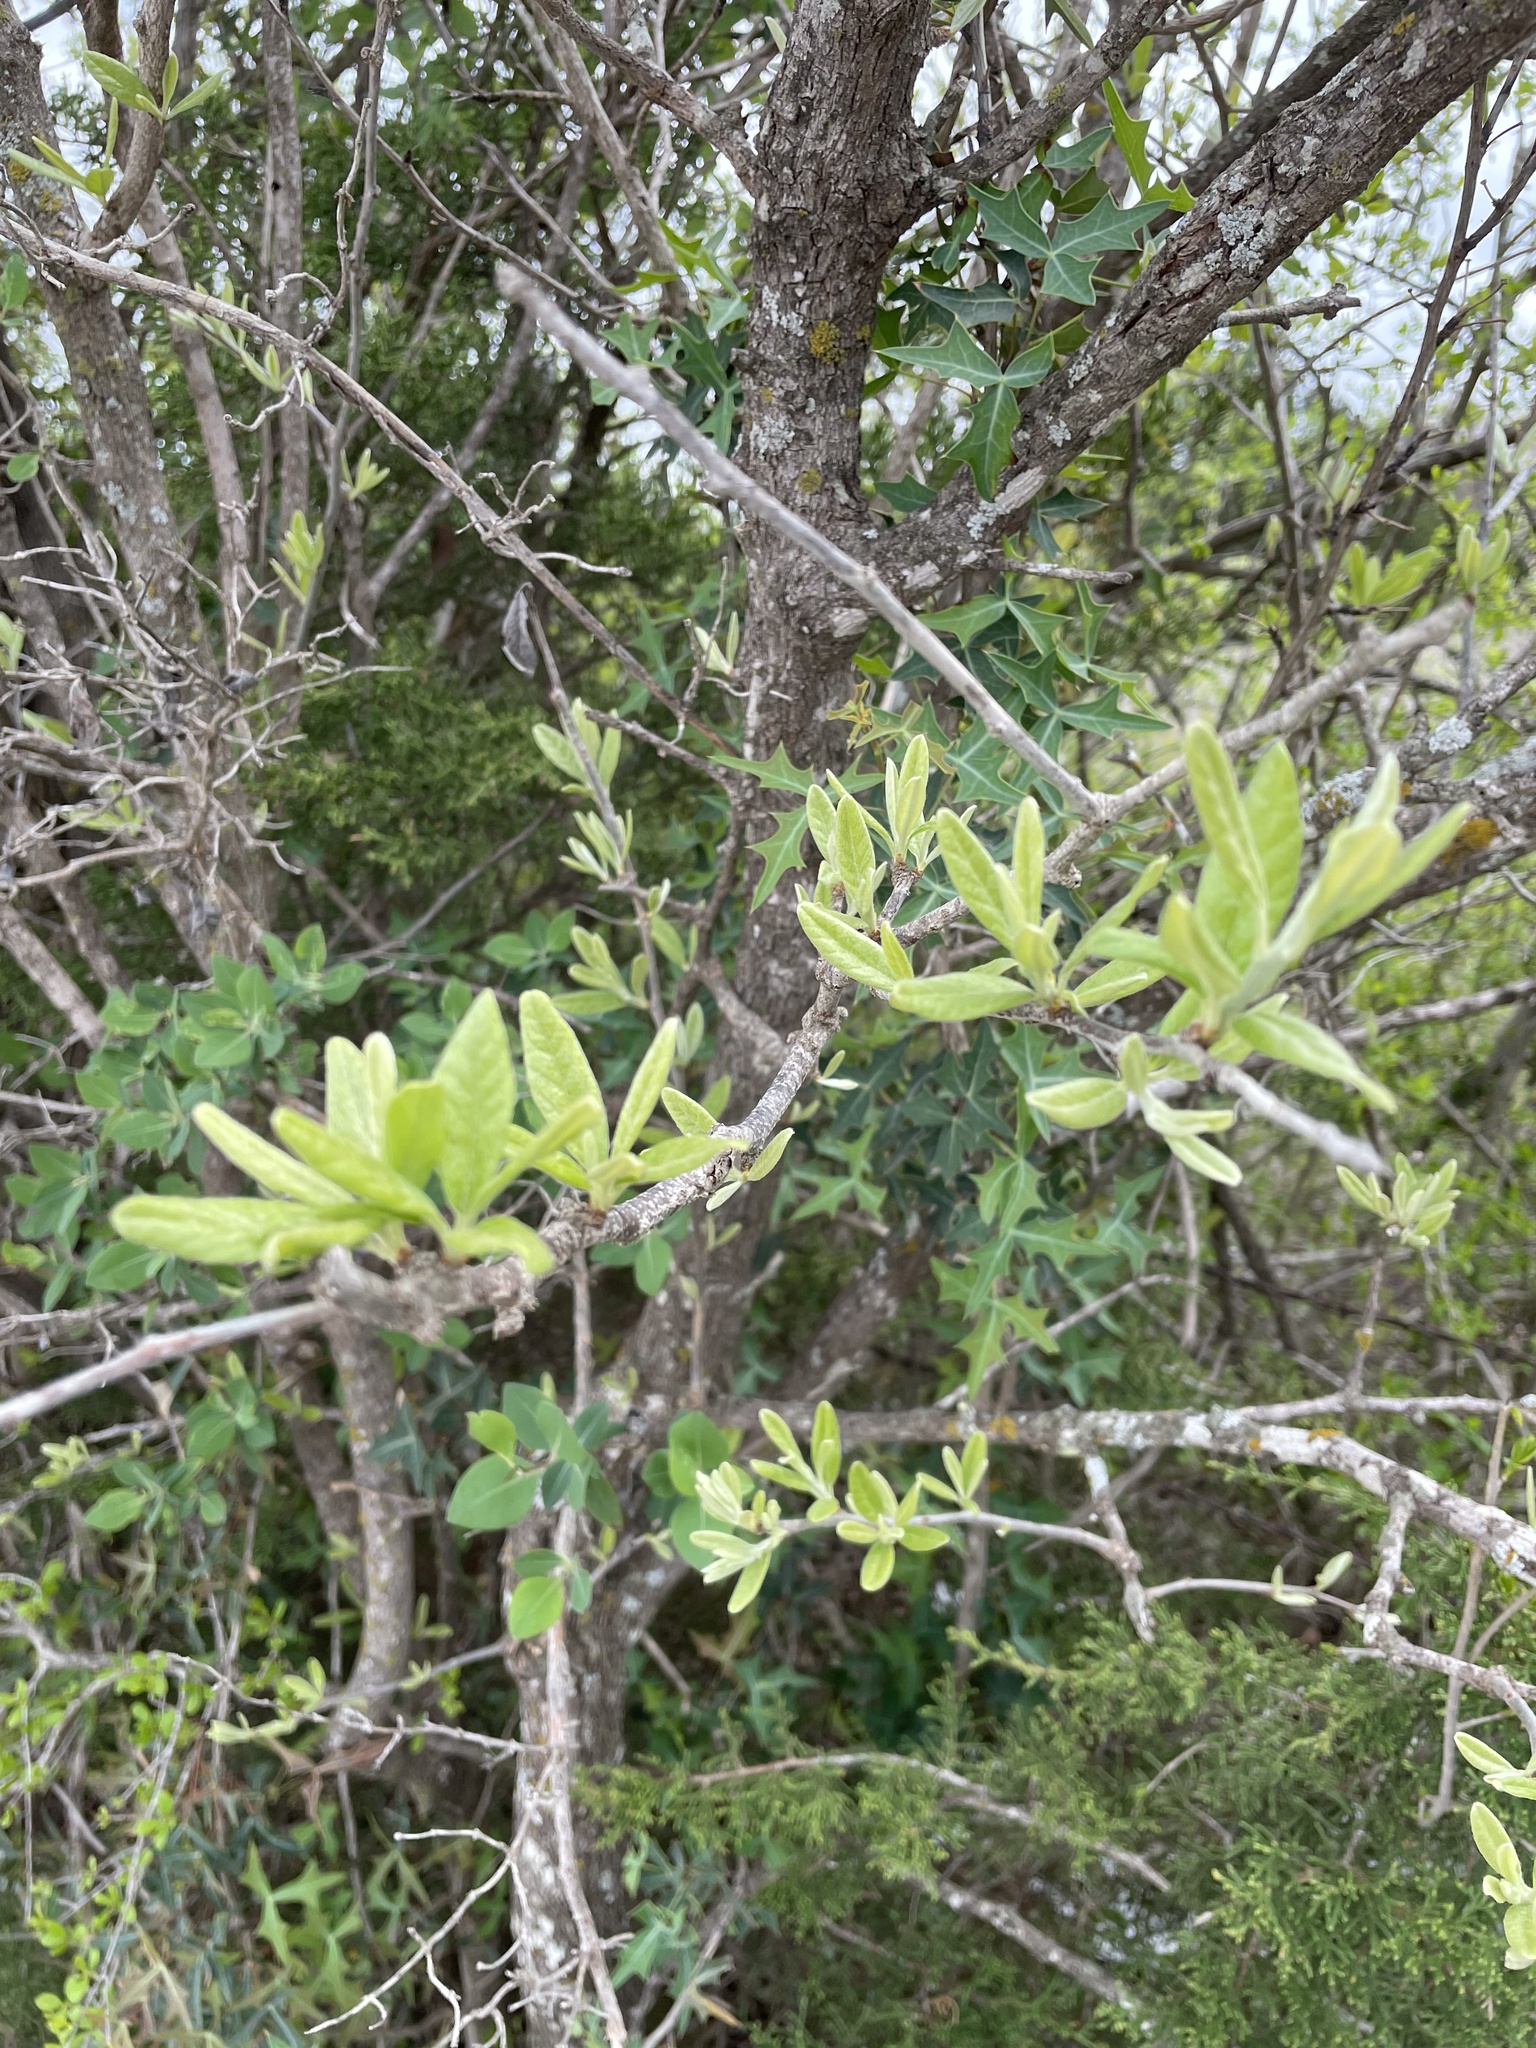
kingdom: Plantae
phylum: Tracheophyta
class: Magnoliopsida
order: Ericales
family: Sapotaceae
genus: Sideroxylon
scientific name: Sideroxylon lanuginosum
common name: Chittamwood
